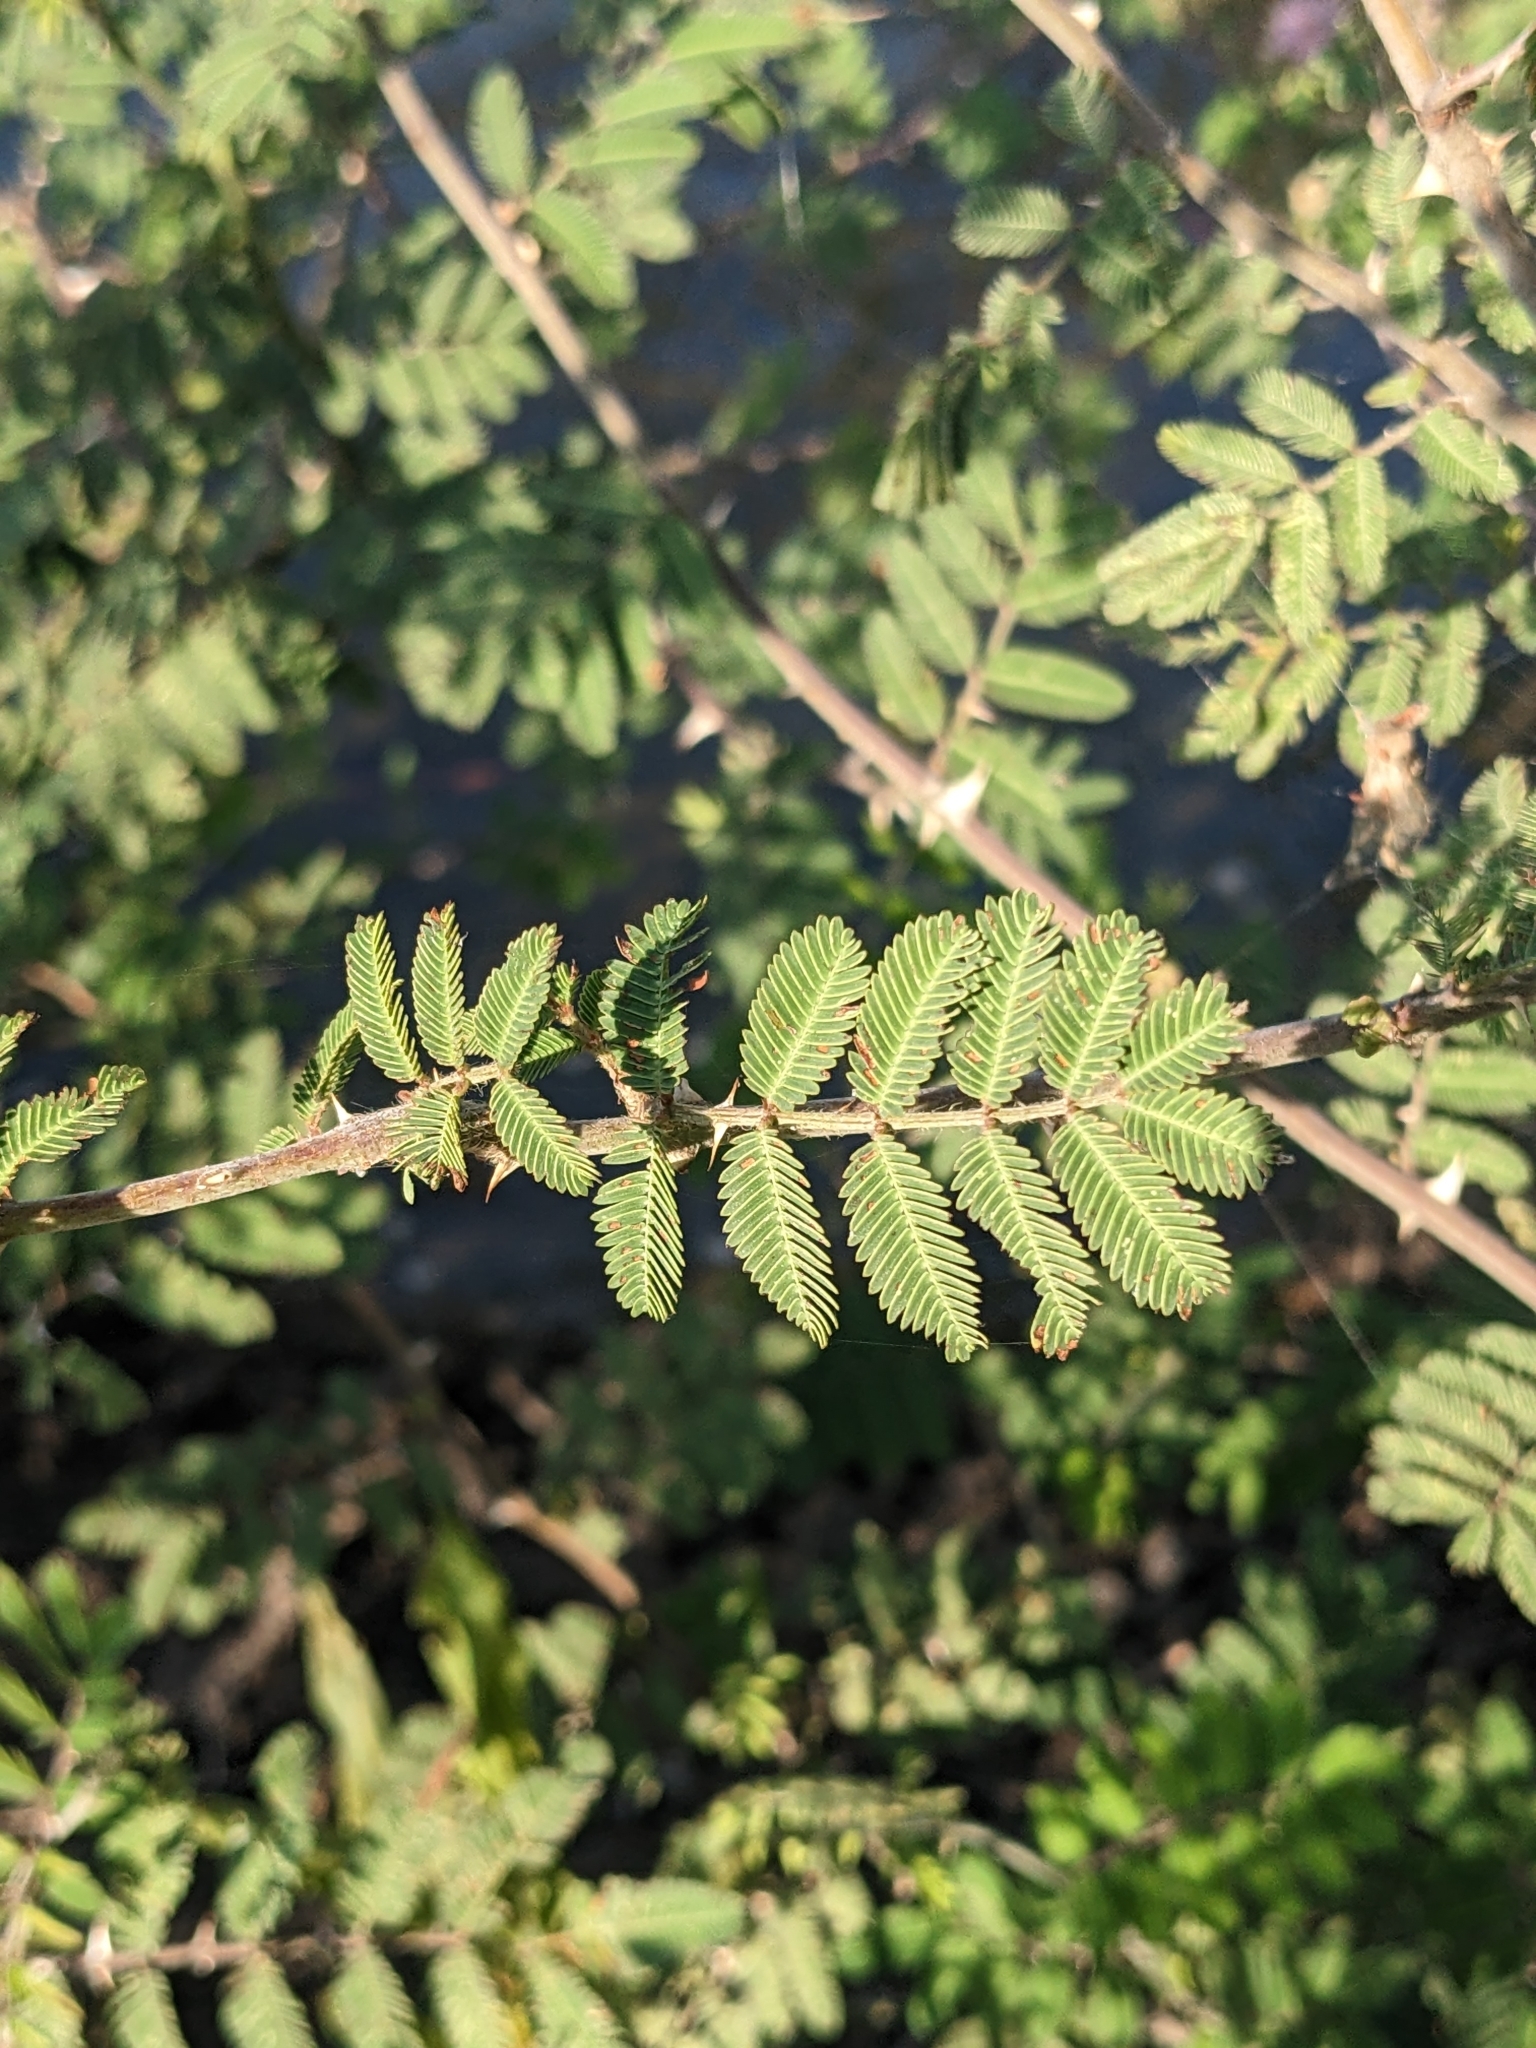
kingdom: Plantae
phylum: Tracheophyta
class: Magnoliopsida
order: Fabales
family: Fabaceae
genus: Mimosa
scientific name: Mimosa pigra
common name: Black mimosa
